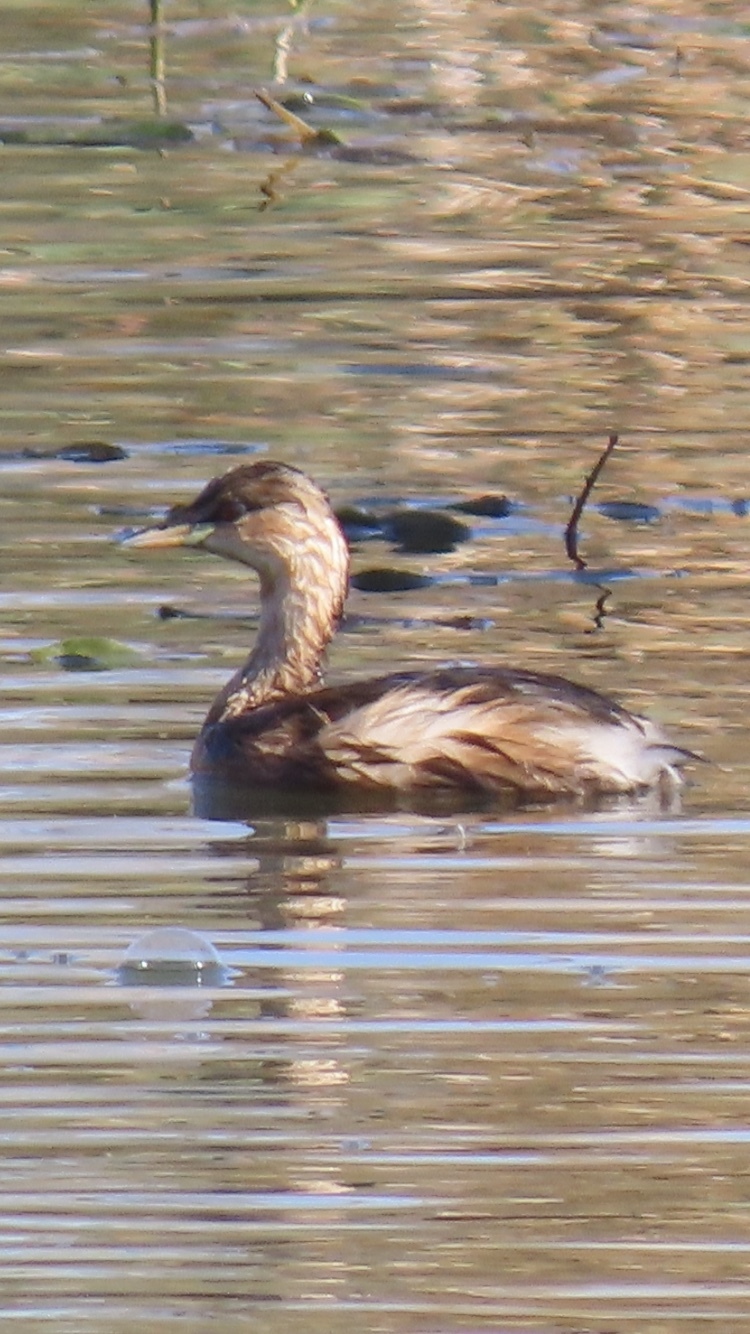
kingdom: Animalia
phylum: Chordata
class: Aves
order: Podicipediformes
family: Podicipedidae
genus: Tachybaptus
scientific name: Tachybaptus ruficollis
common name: Little grebe
